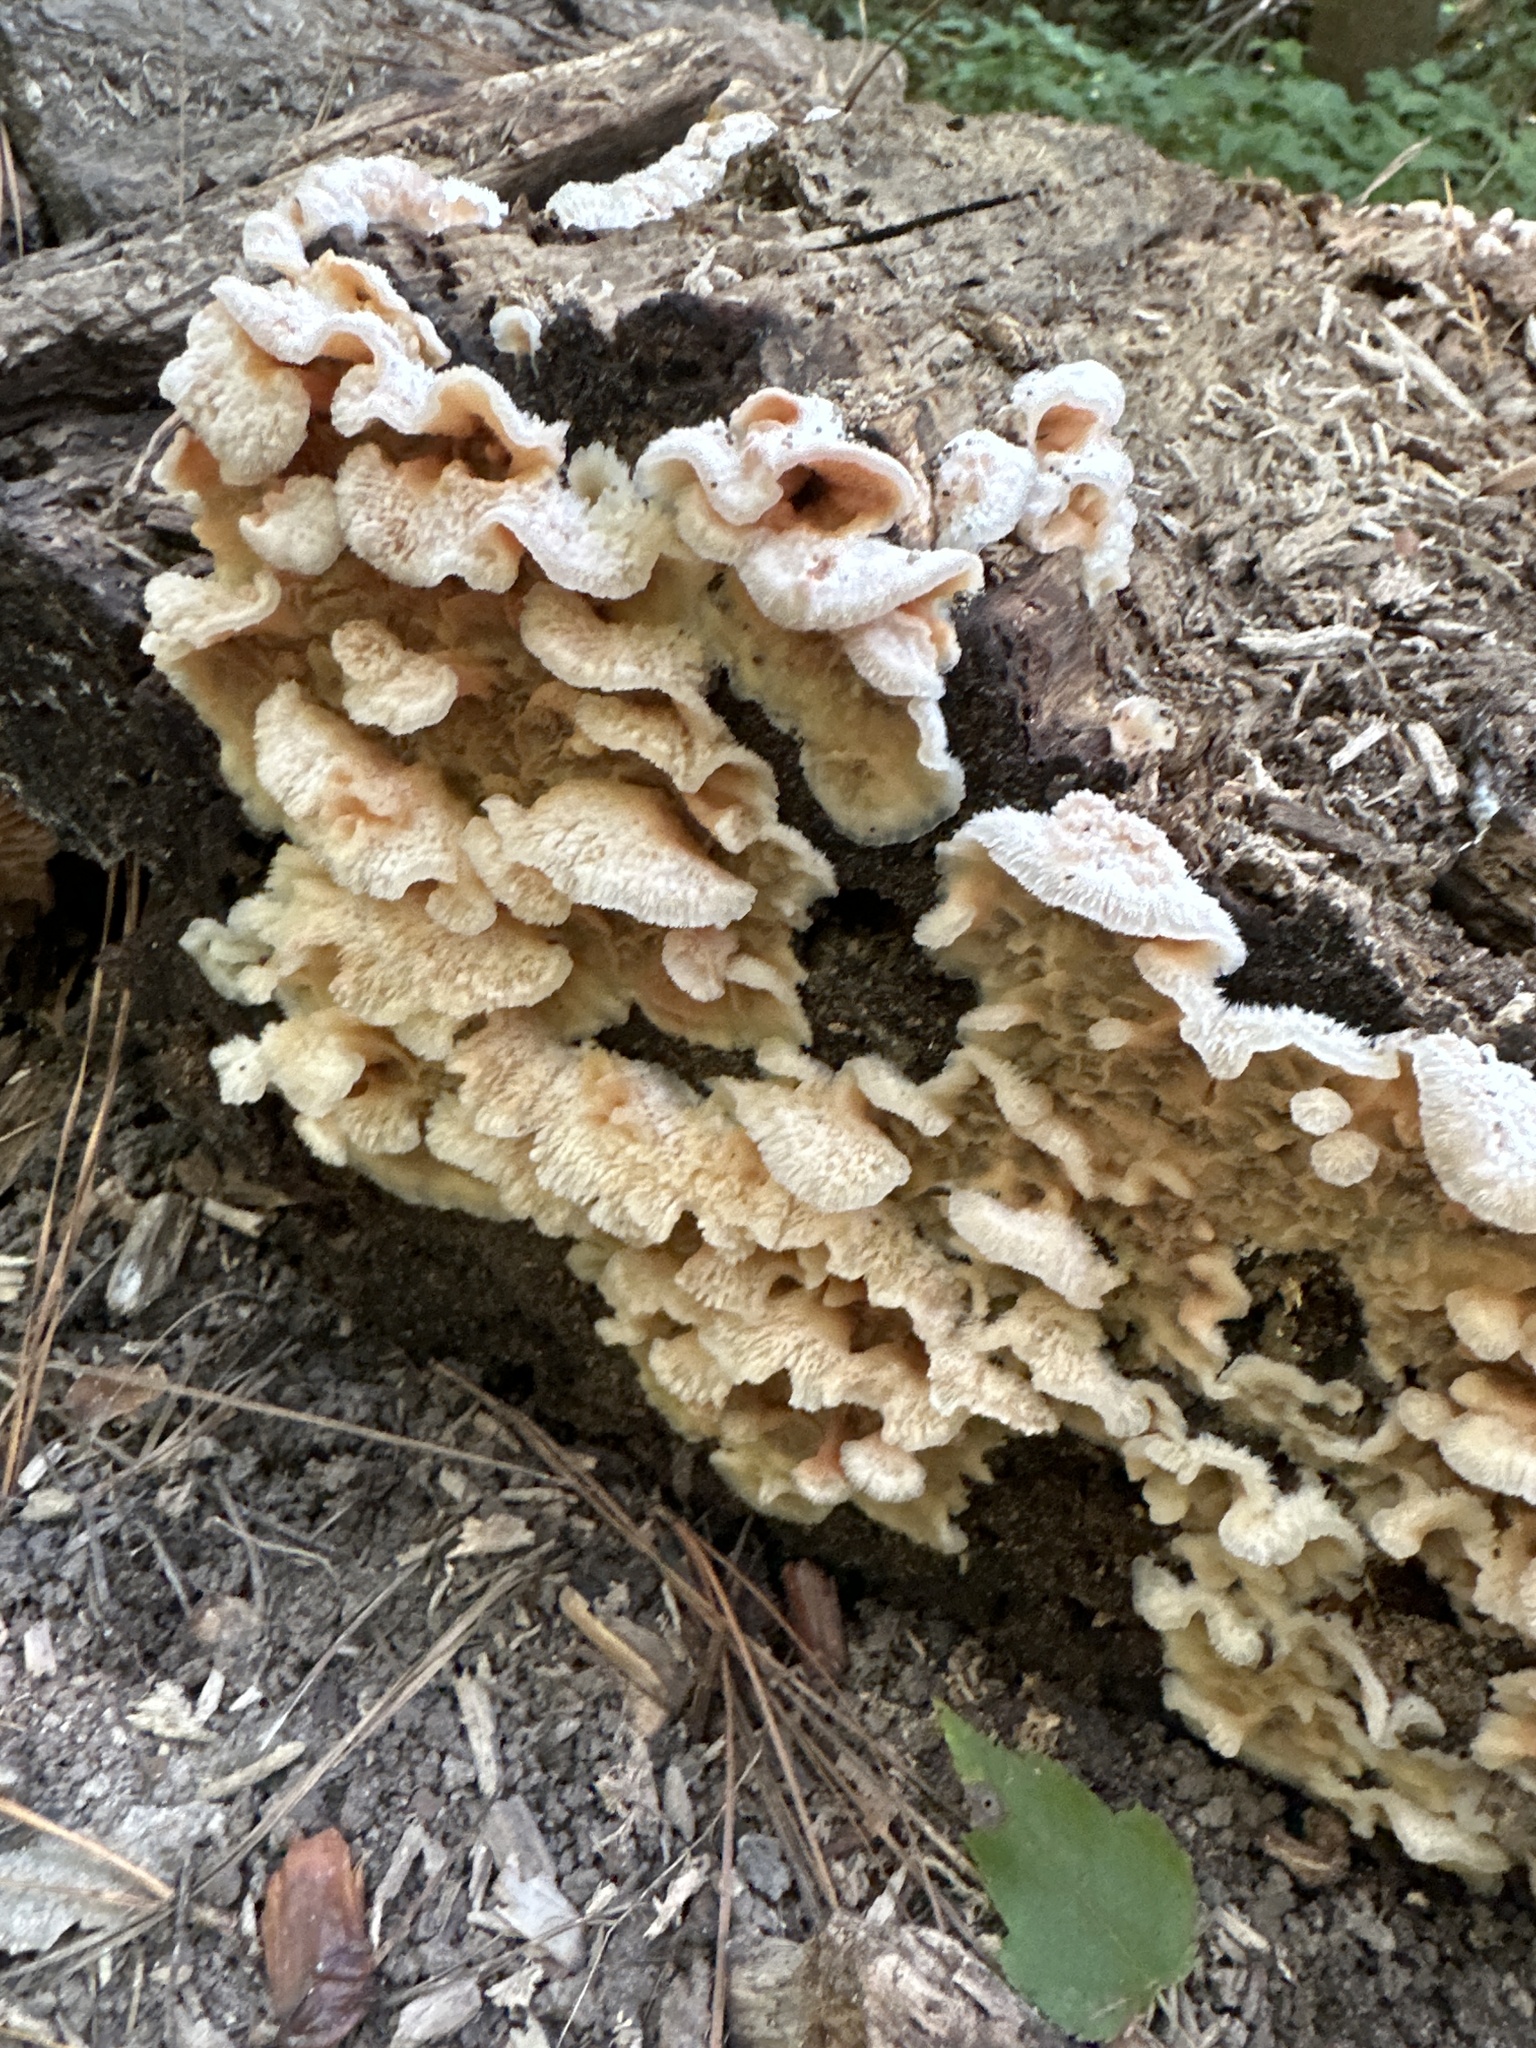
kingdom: Fungi
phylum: Basidiomycota
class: Agaricomycetes
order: Polyporales
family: Meruliaceae
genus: Phlebia
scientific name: Phlebia tremellosa
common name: Jelly rot
